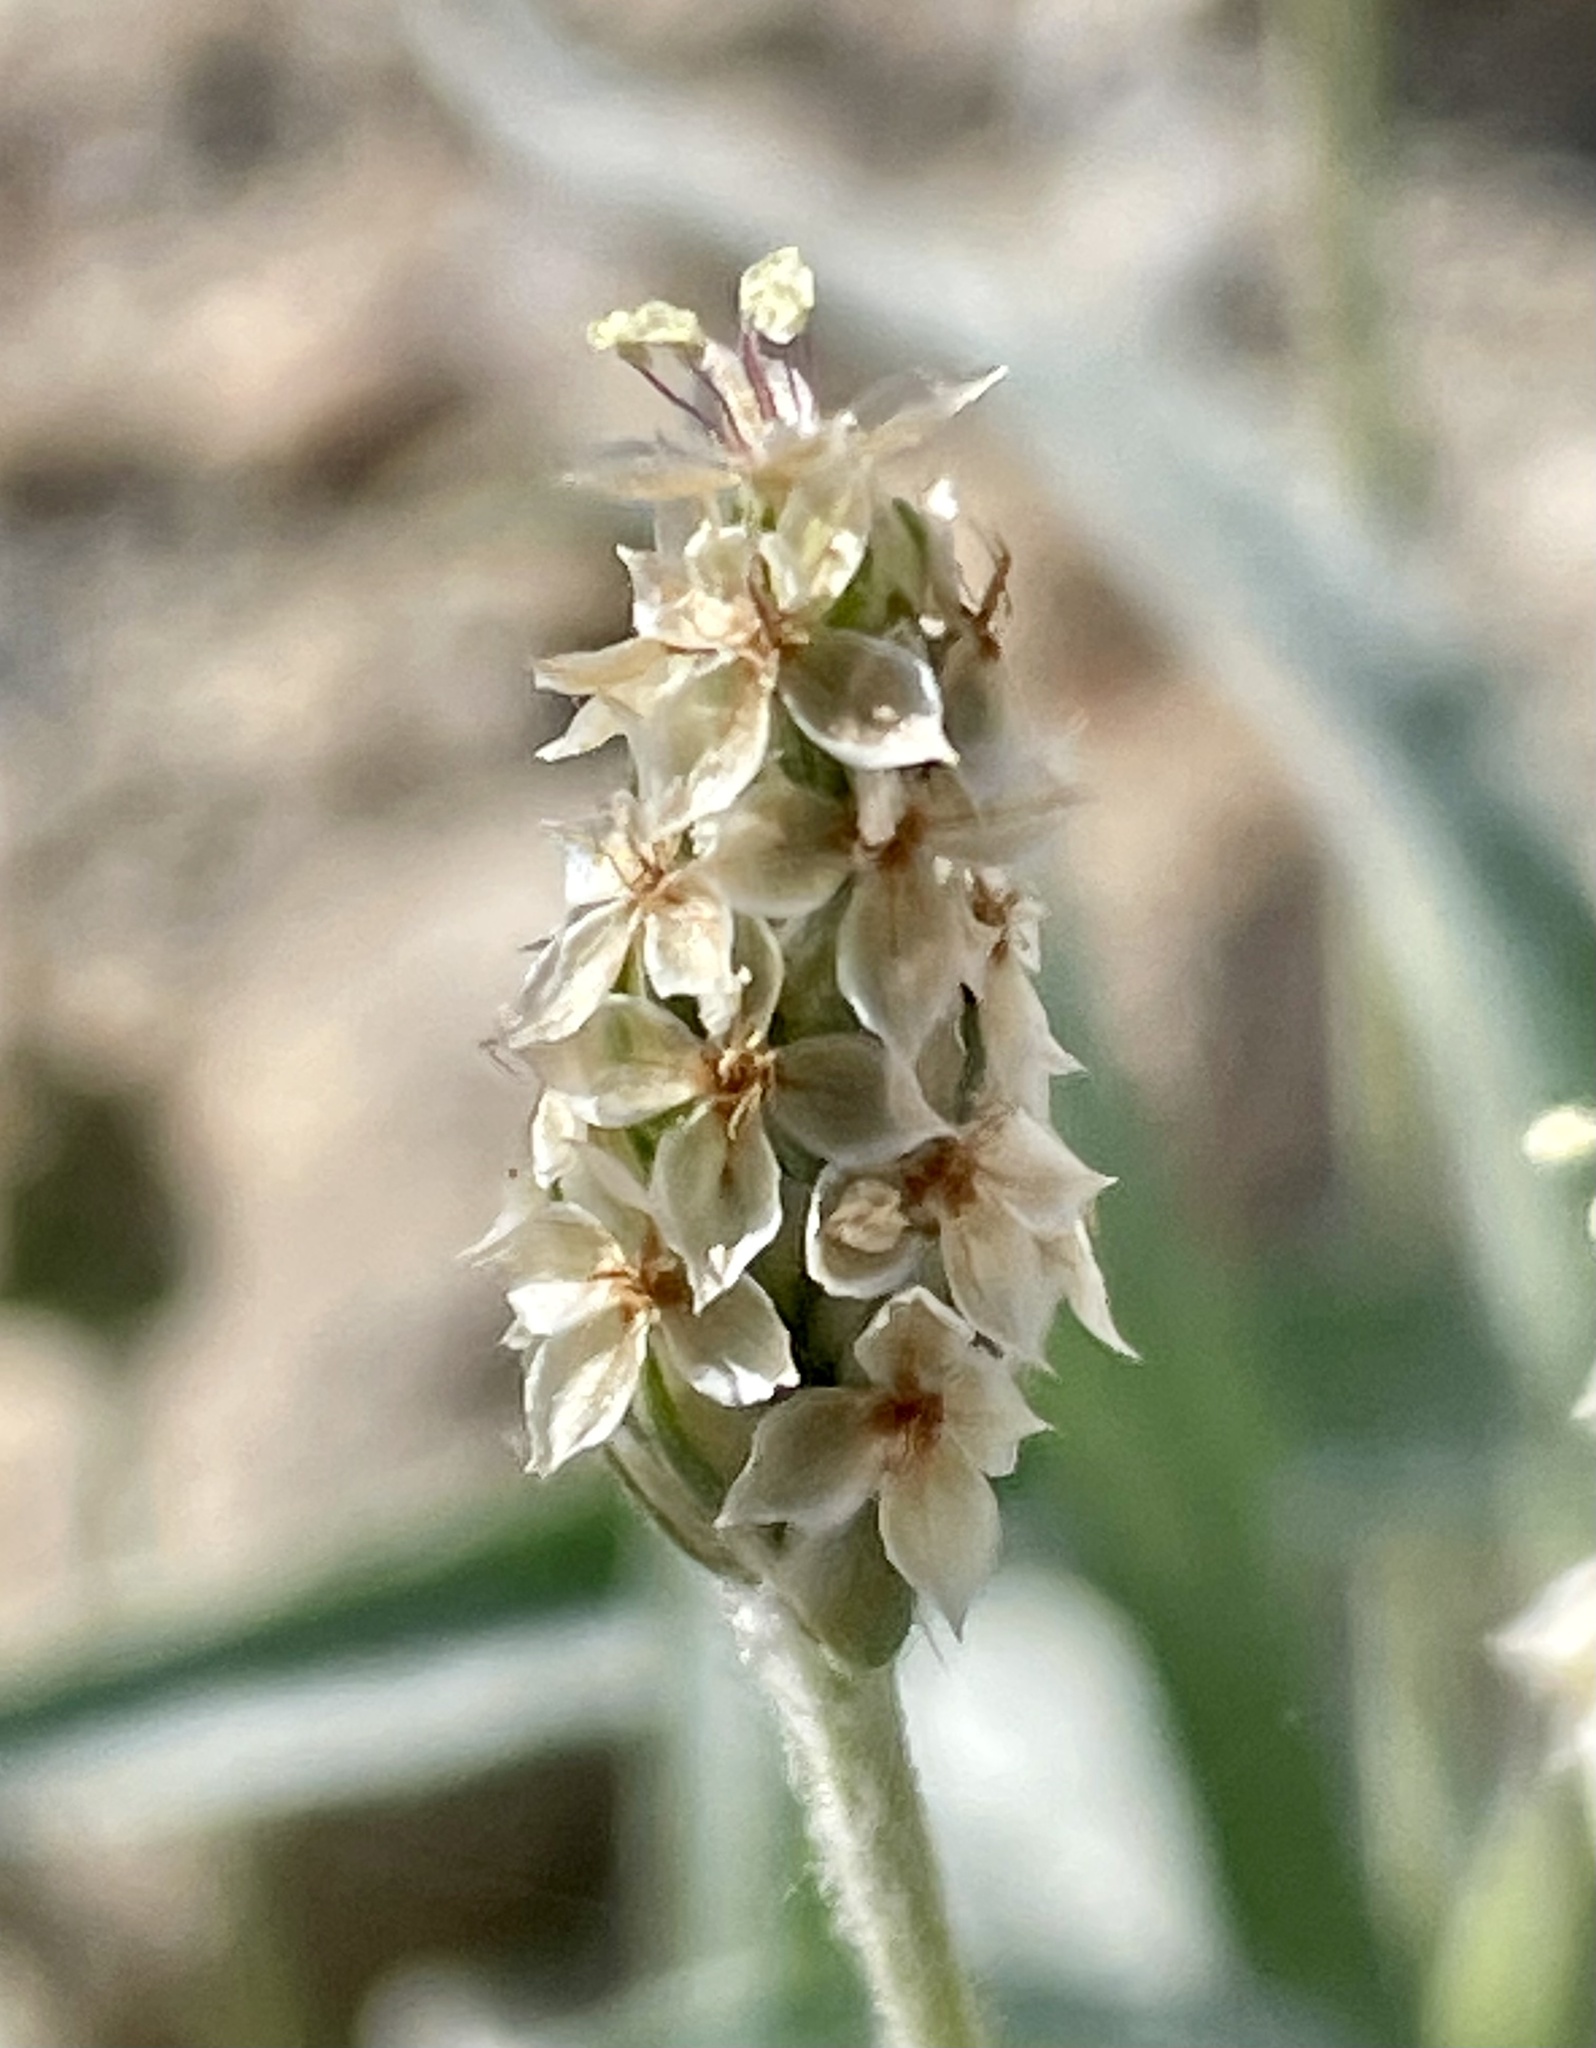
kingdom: Plantae
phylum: Tracheophyta
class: Magnoliopsida
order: Lamiales
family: Plantaginaceae
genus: Plantago
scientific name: Plantago ovata
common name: Blond plantain
